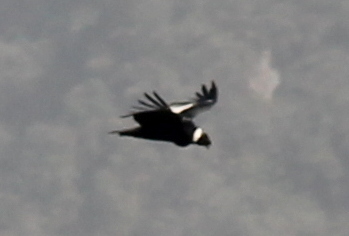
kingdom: Animalia
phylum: Chordata
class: Aves
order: Accipitriformes
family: Cathartidae
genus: Vultur
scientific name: Vultur gryphus
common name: Andean condor
